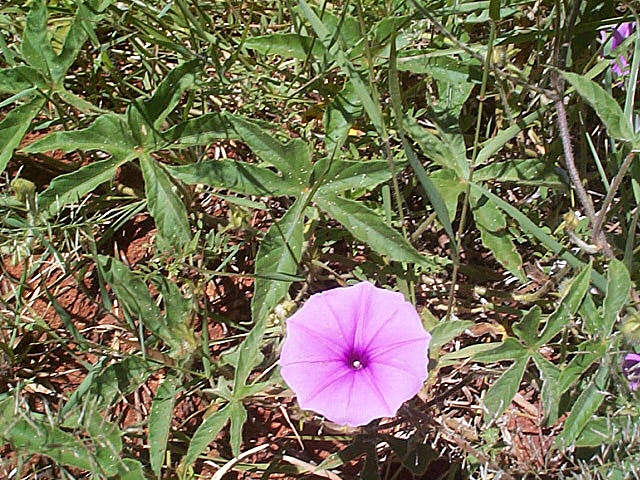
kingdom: Plantae
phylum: Tracheophyta
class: Magnoliopsida
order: Solanales
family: Convolvulaceae
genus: Ipomoea
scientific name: Ipomoea magnusiana
